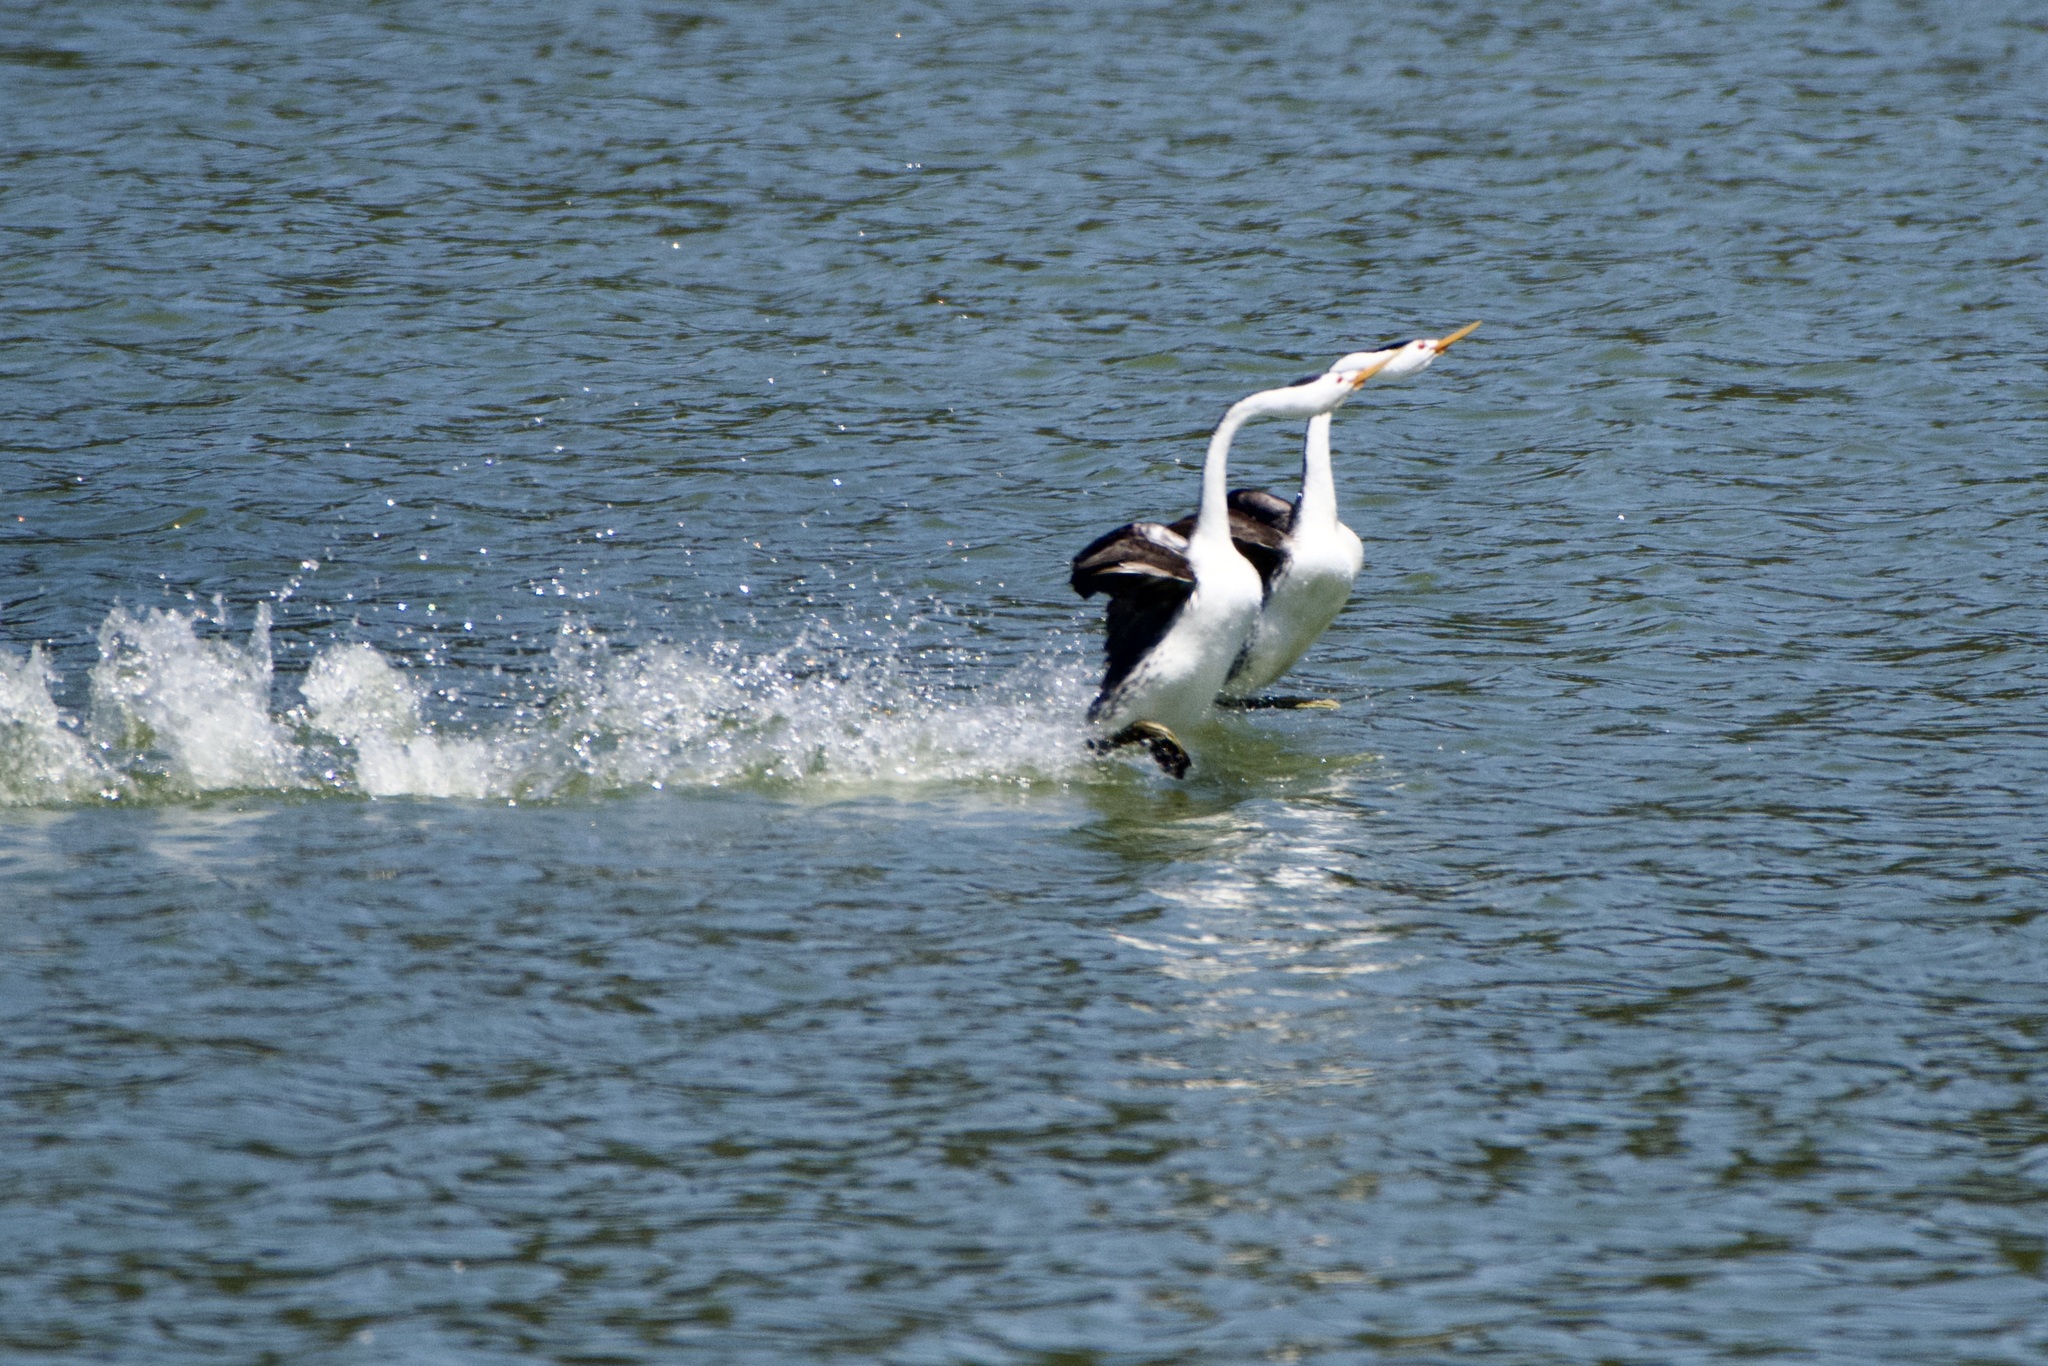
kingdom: Animalia
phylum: Chordata
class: Aves
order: Podicipediformes
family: Podicipedidae
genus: Aechmophorus
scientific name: Aechmophorus clarkii
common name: Clark's grebe
